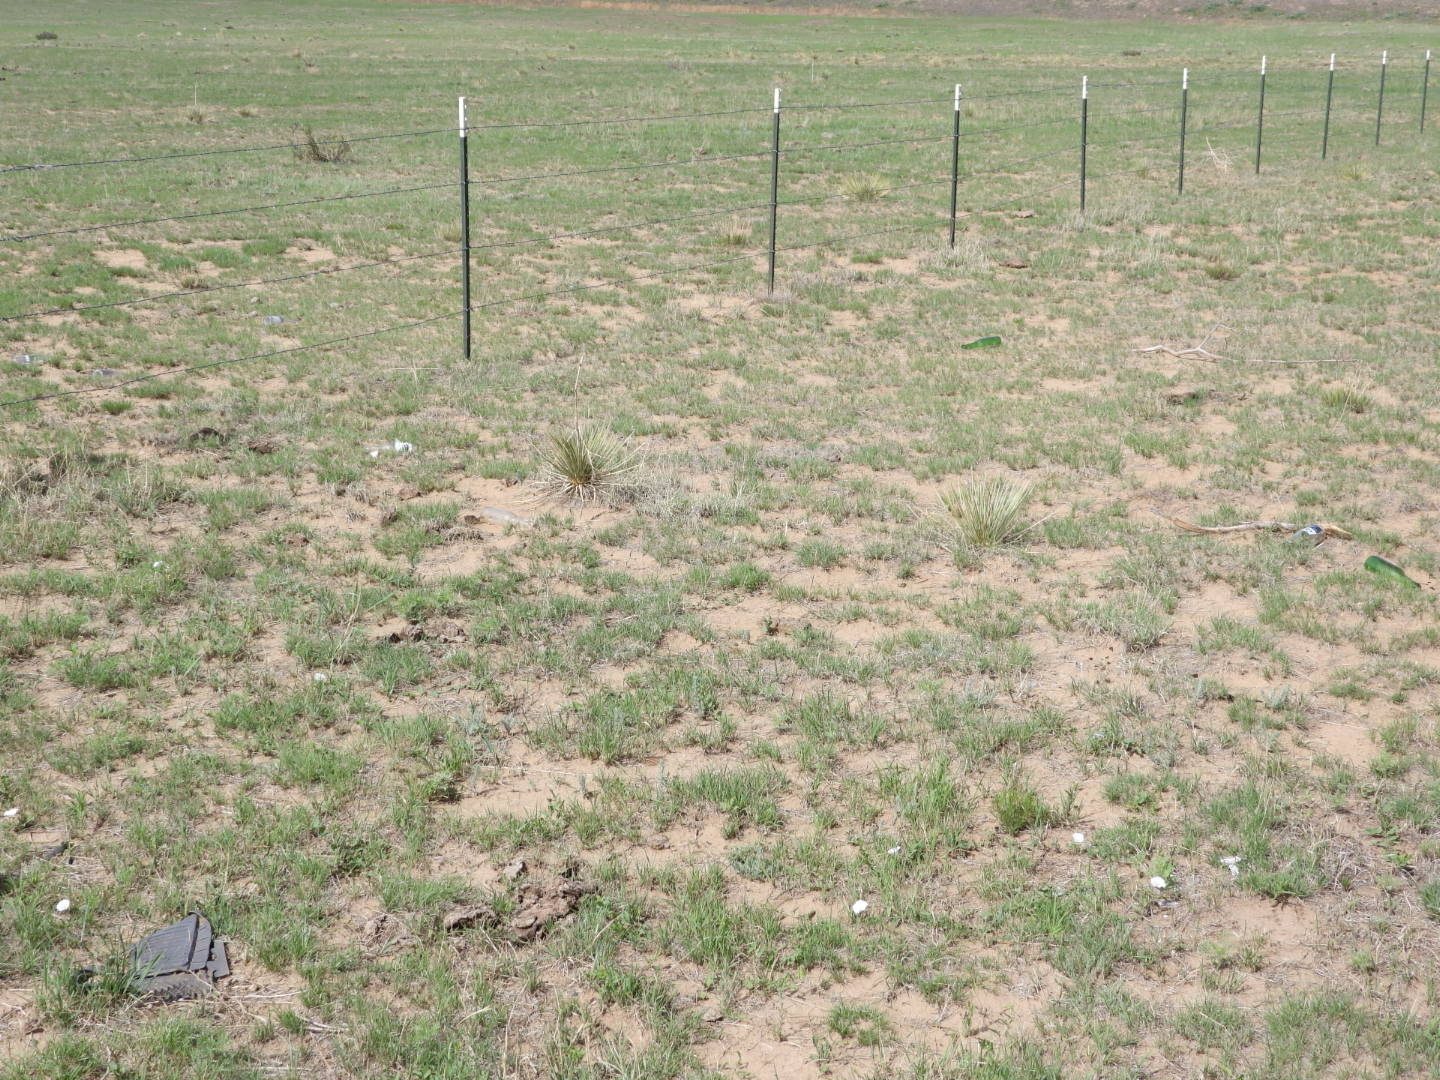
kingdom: Plantae
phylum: Tracheophyta
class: Liliopsida
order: Asparagales
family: Asparagaceae
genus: Yucca
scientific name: Yucca glauca
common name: Great plains yucca
